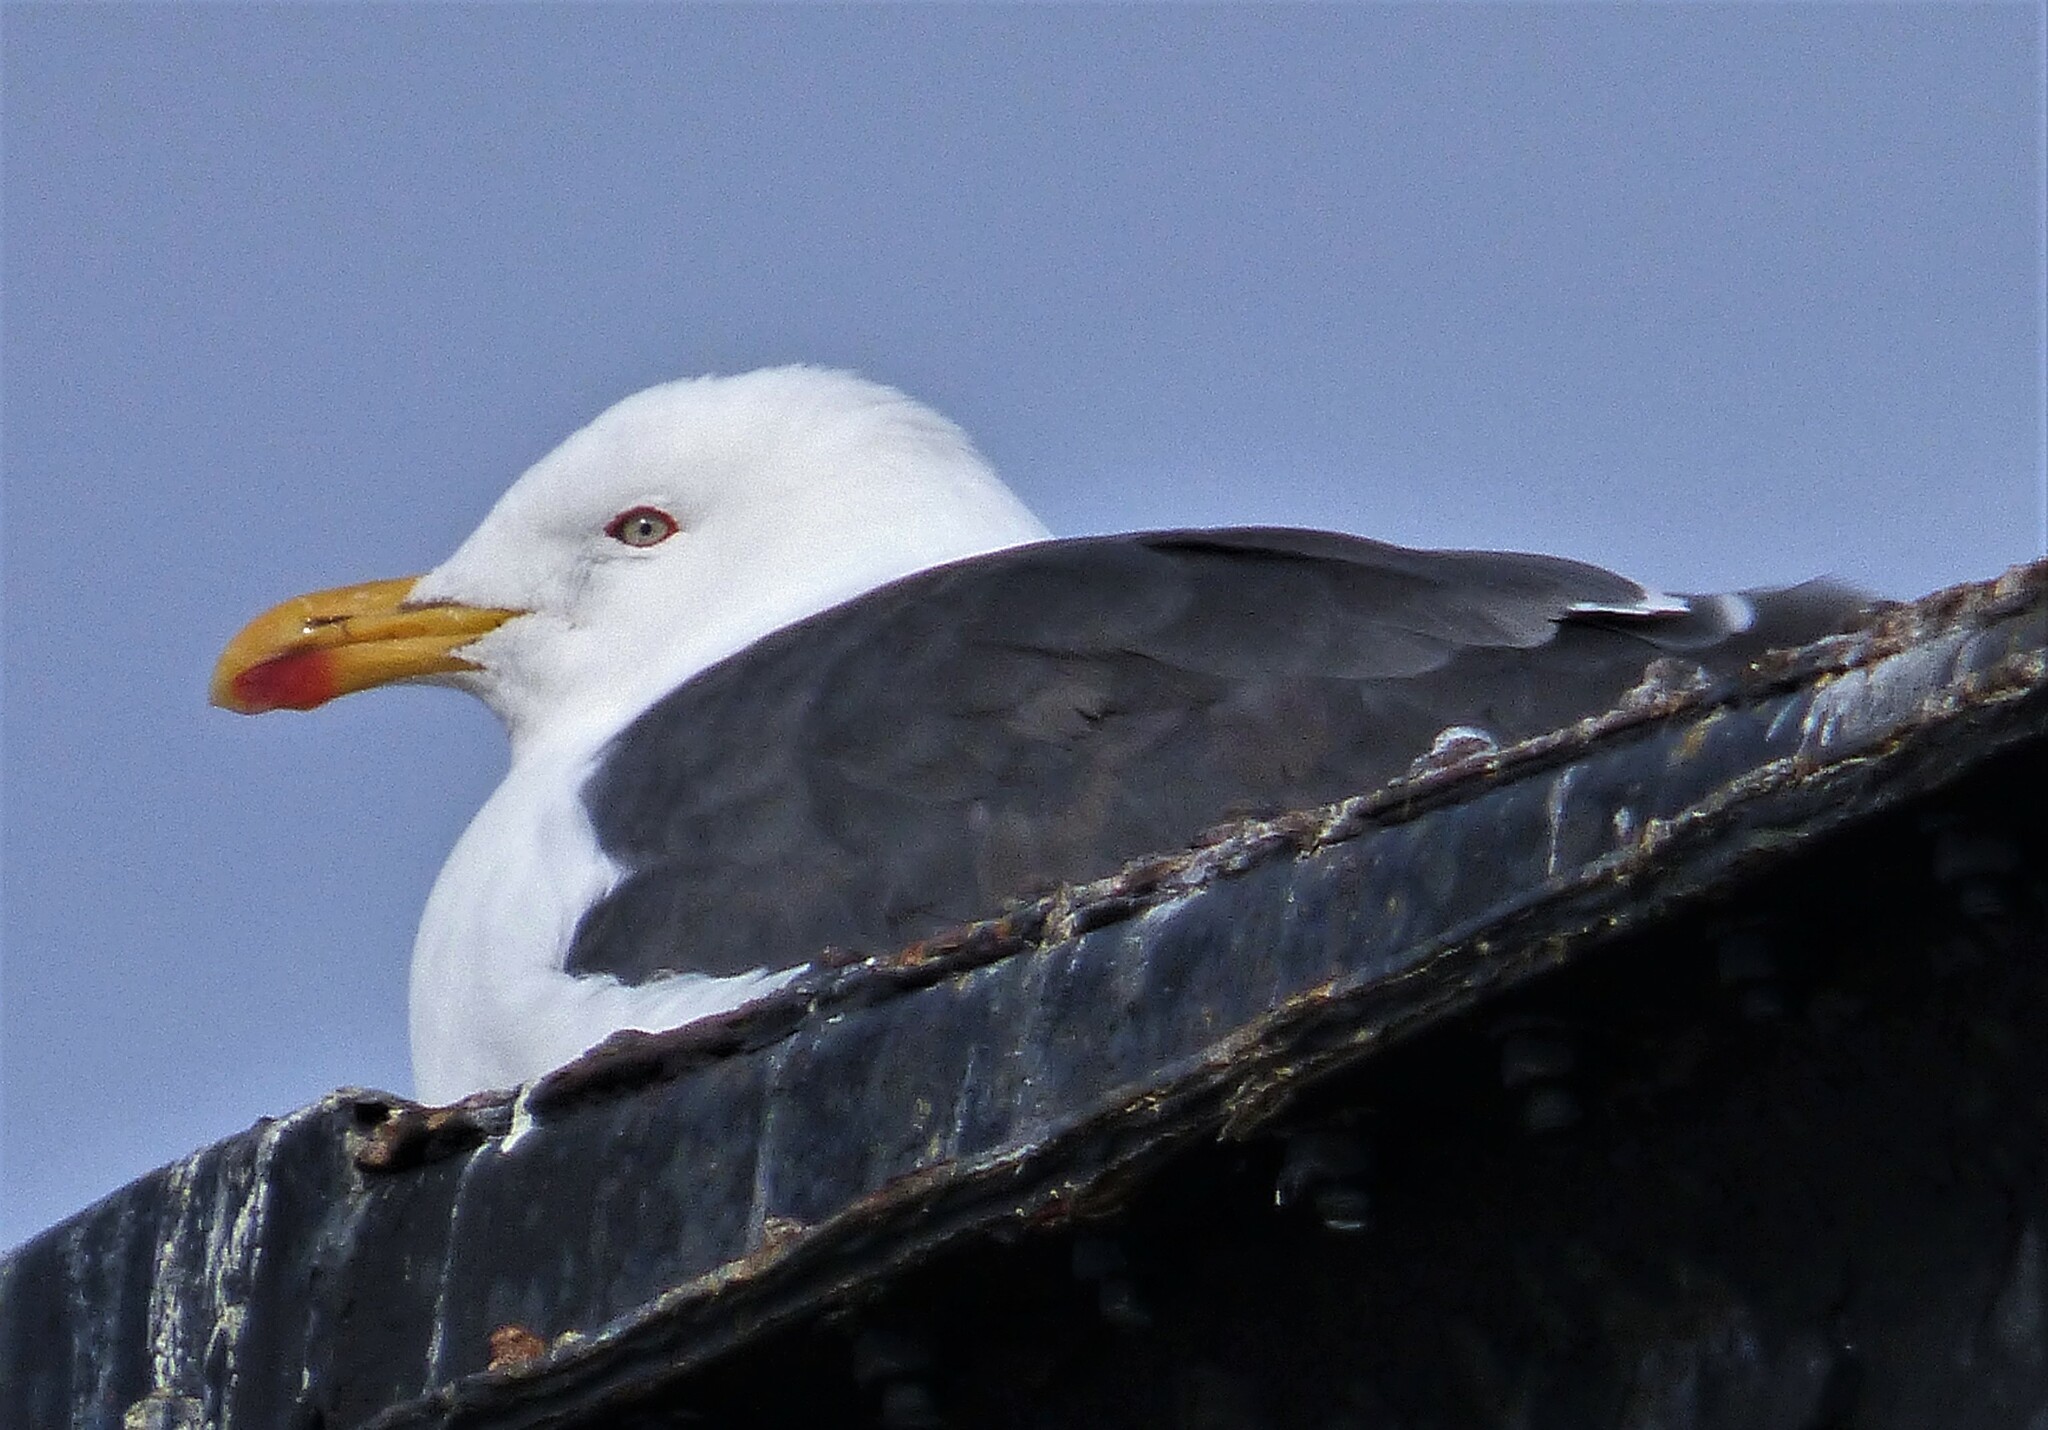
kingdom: Animalia
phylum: Chordata
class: Aves
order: Charadriiformes
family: Laridae
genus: Larus
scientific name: Larus dominicanus
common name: Kelp gull
